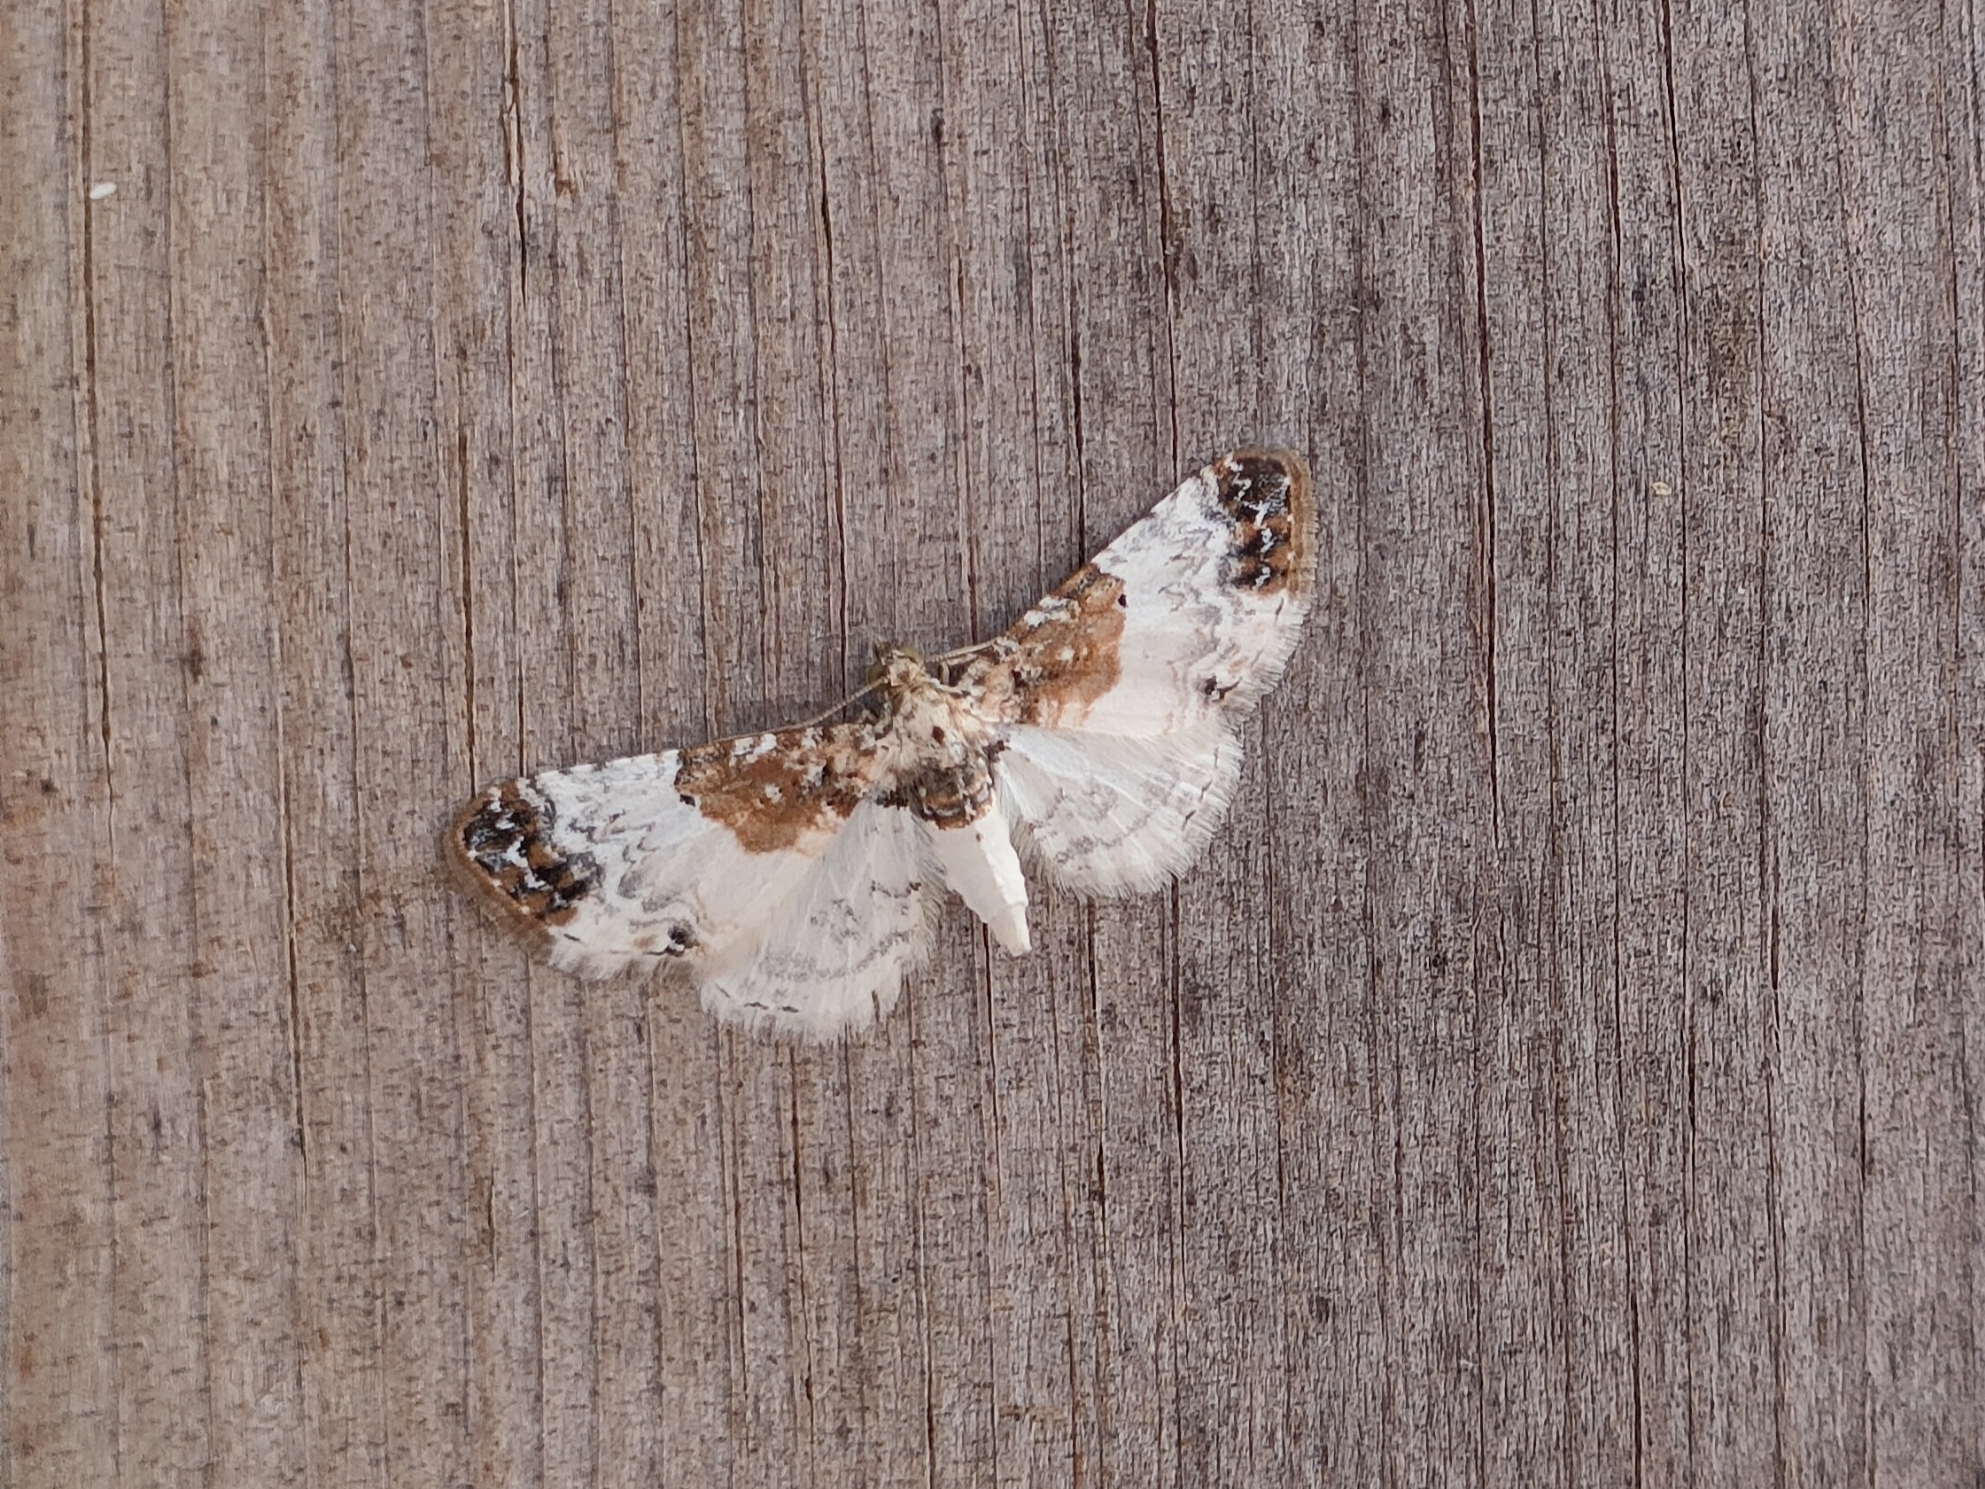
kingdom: Animalia
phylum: Arthropoda
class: Insecta
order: Lepidoptera
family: Geometridae
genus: Eupithecia
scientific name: Eupithecia breviculata
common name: Rusty-shouldered pug
